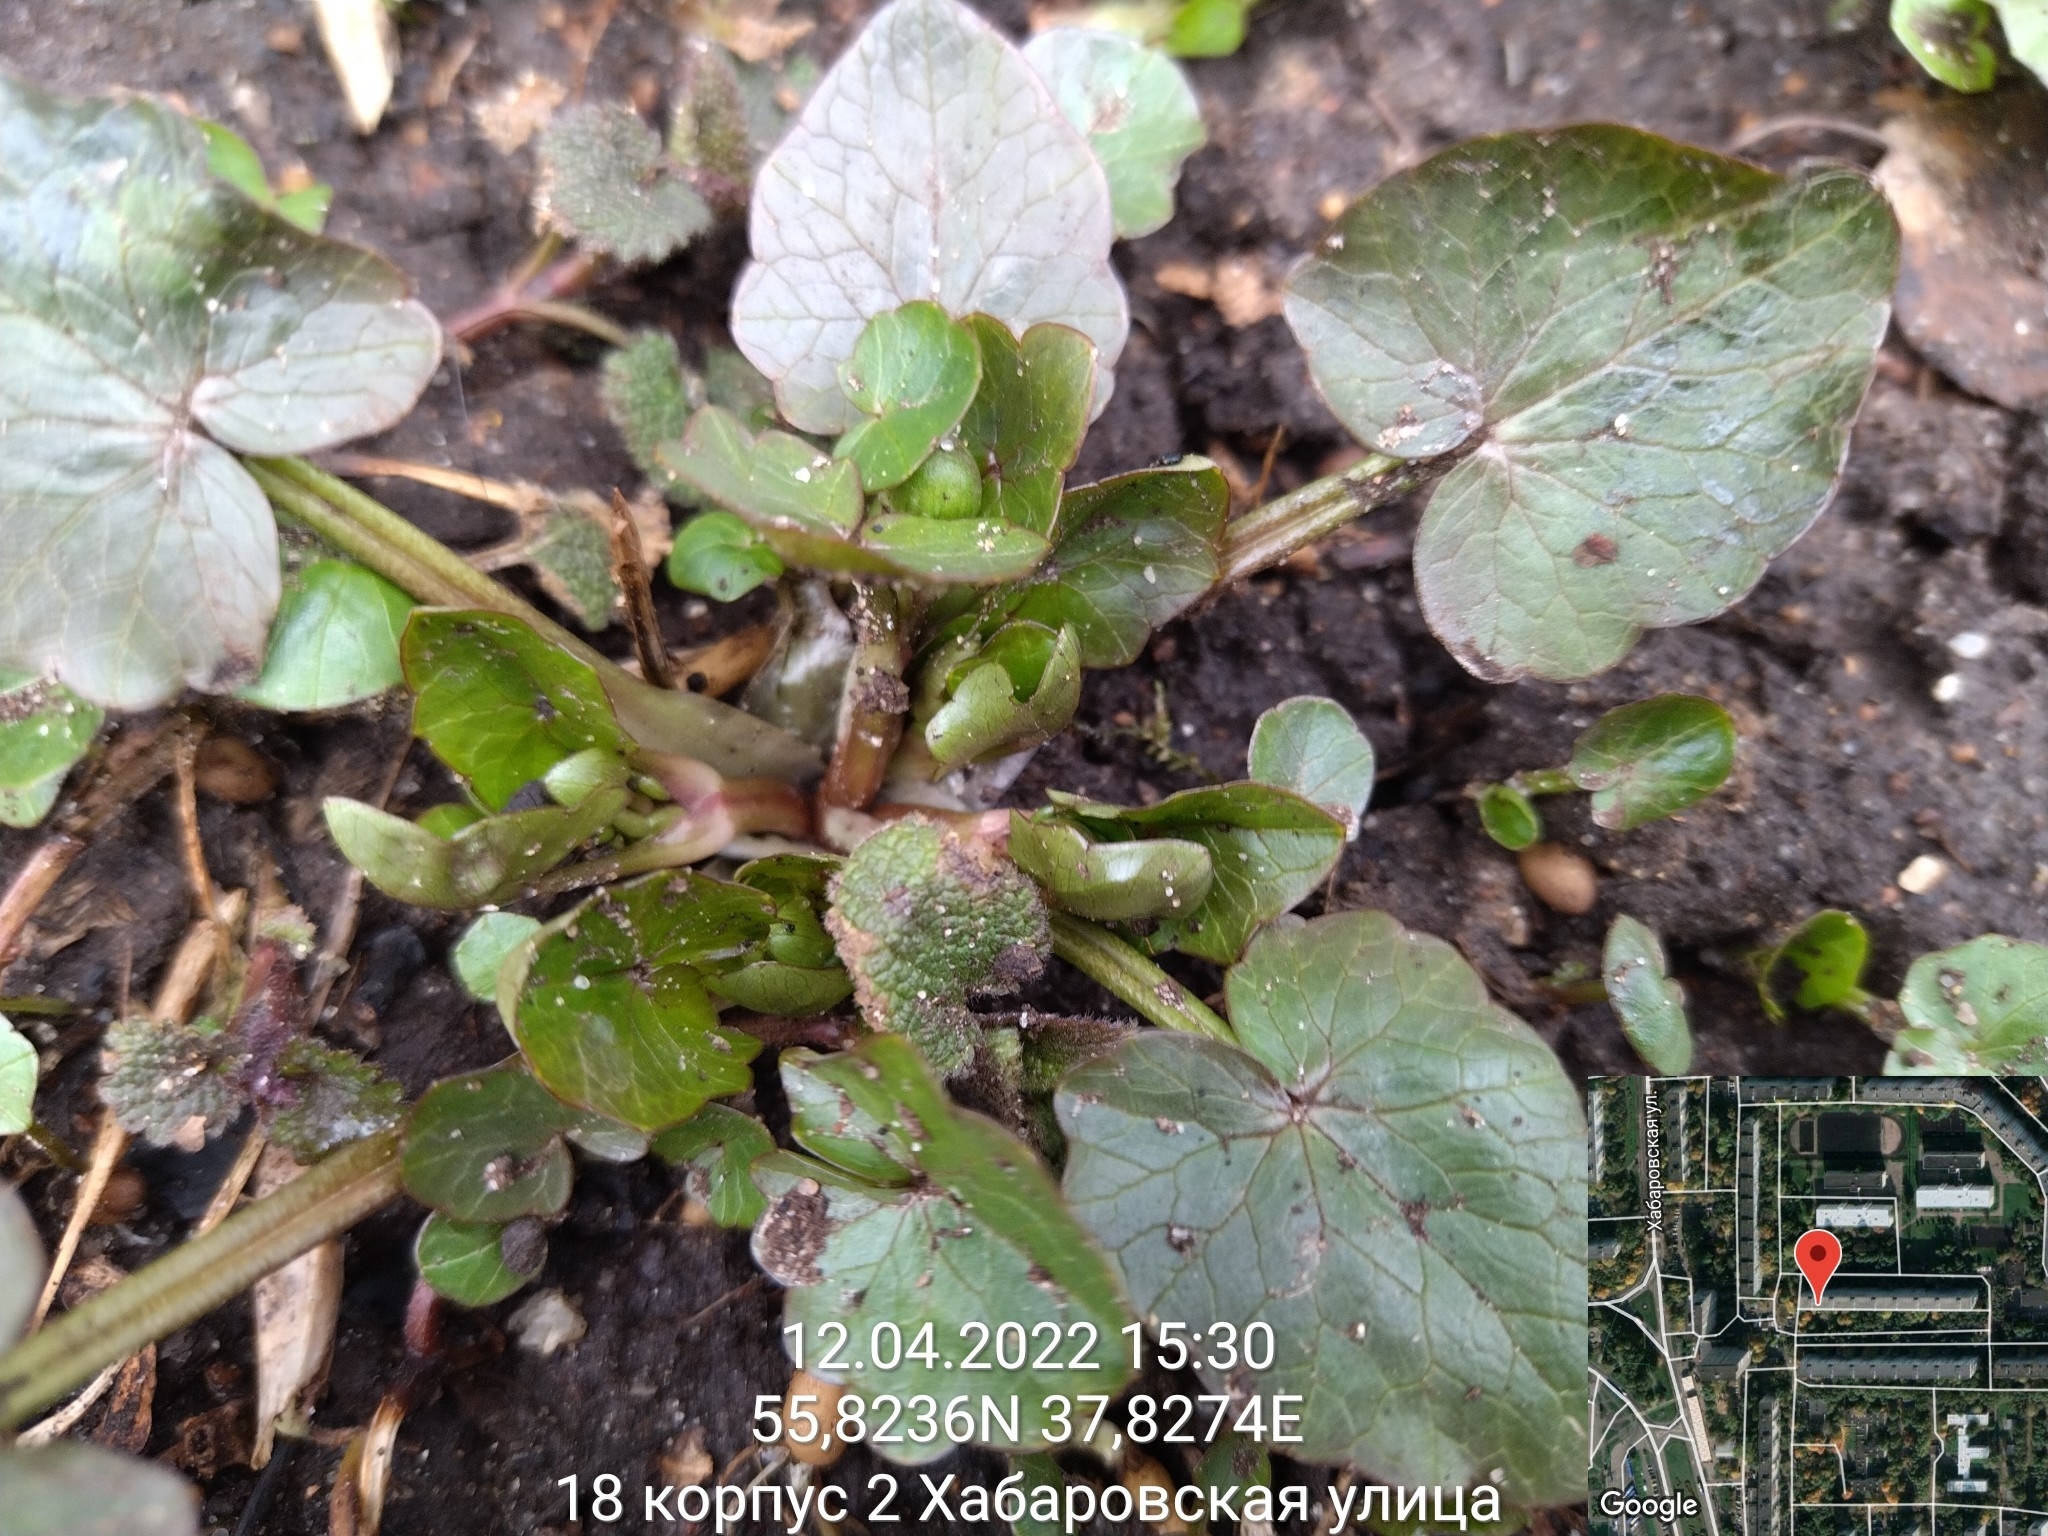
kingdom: Plantae
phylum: Tracheophyta
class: Magnoliopsida
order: Ranunculales
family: Ranunculaceae
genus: Ficaria
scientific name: Ficaria verna
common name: Lesser celandine
